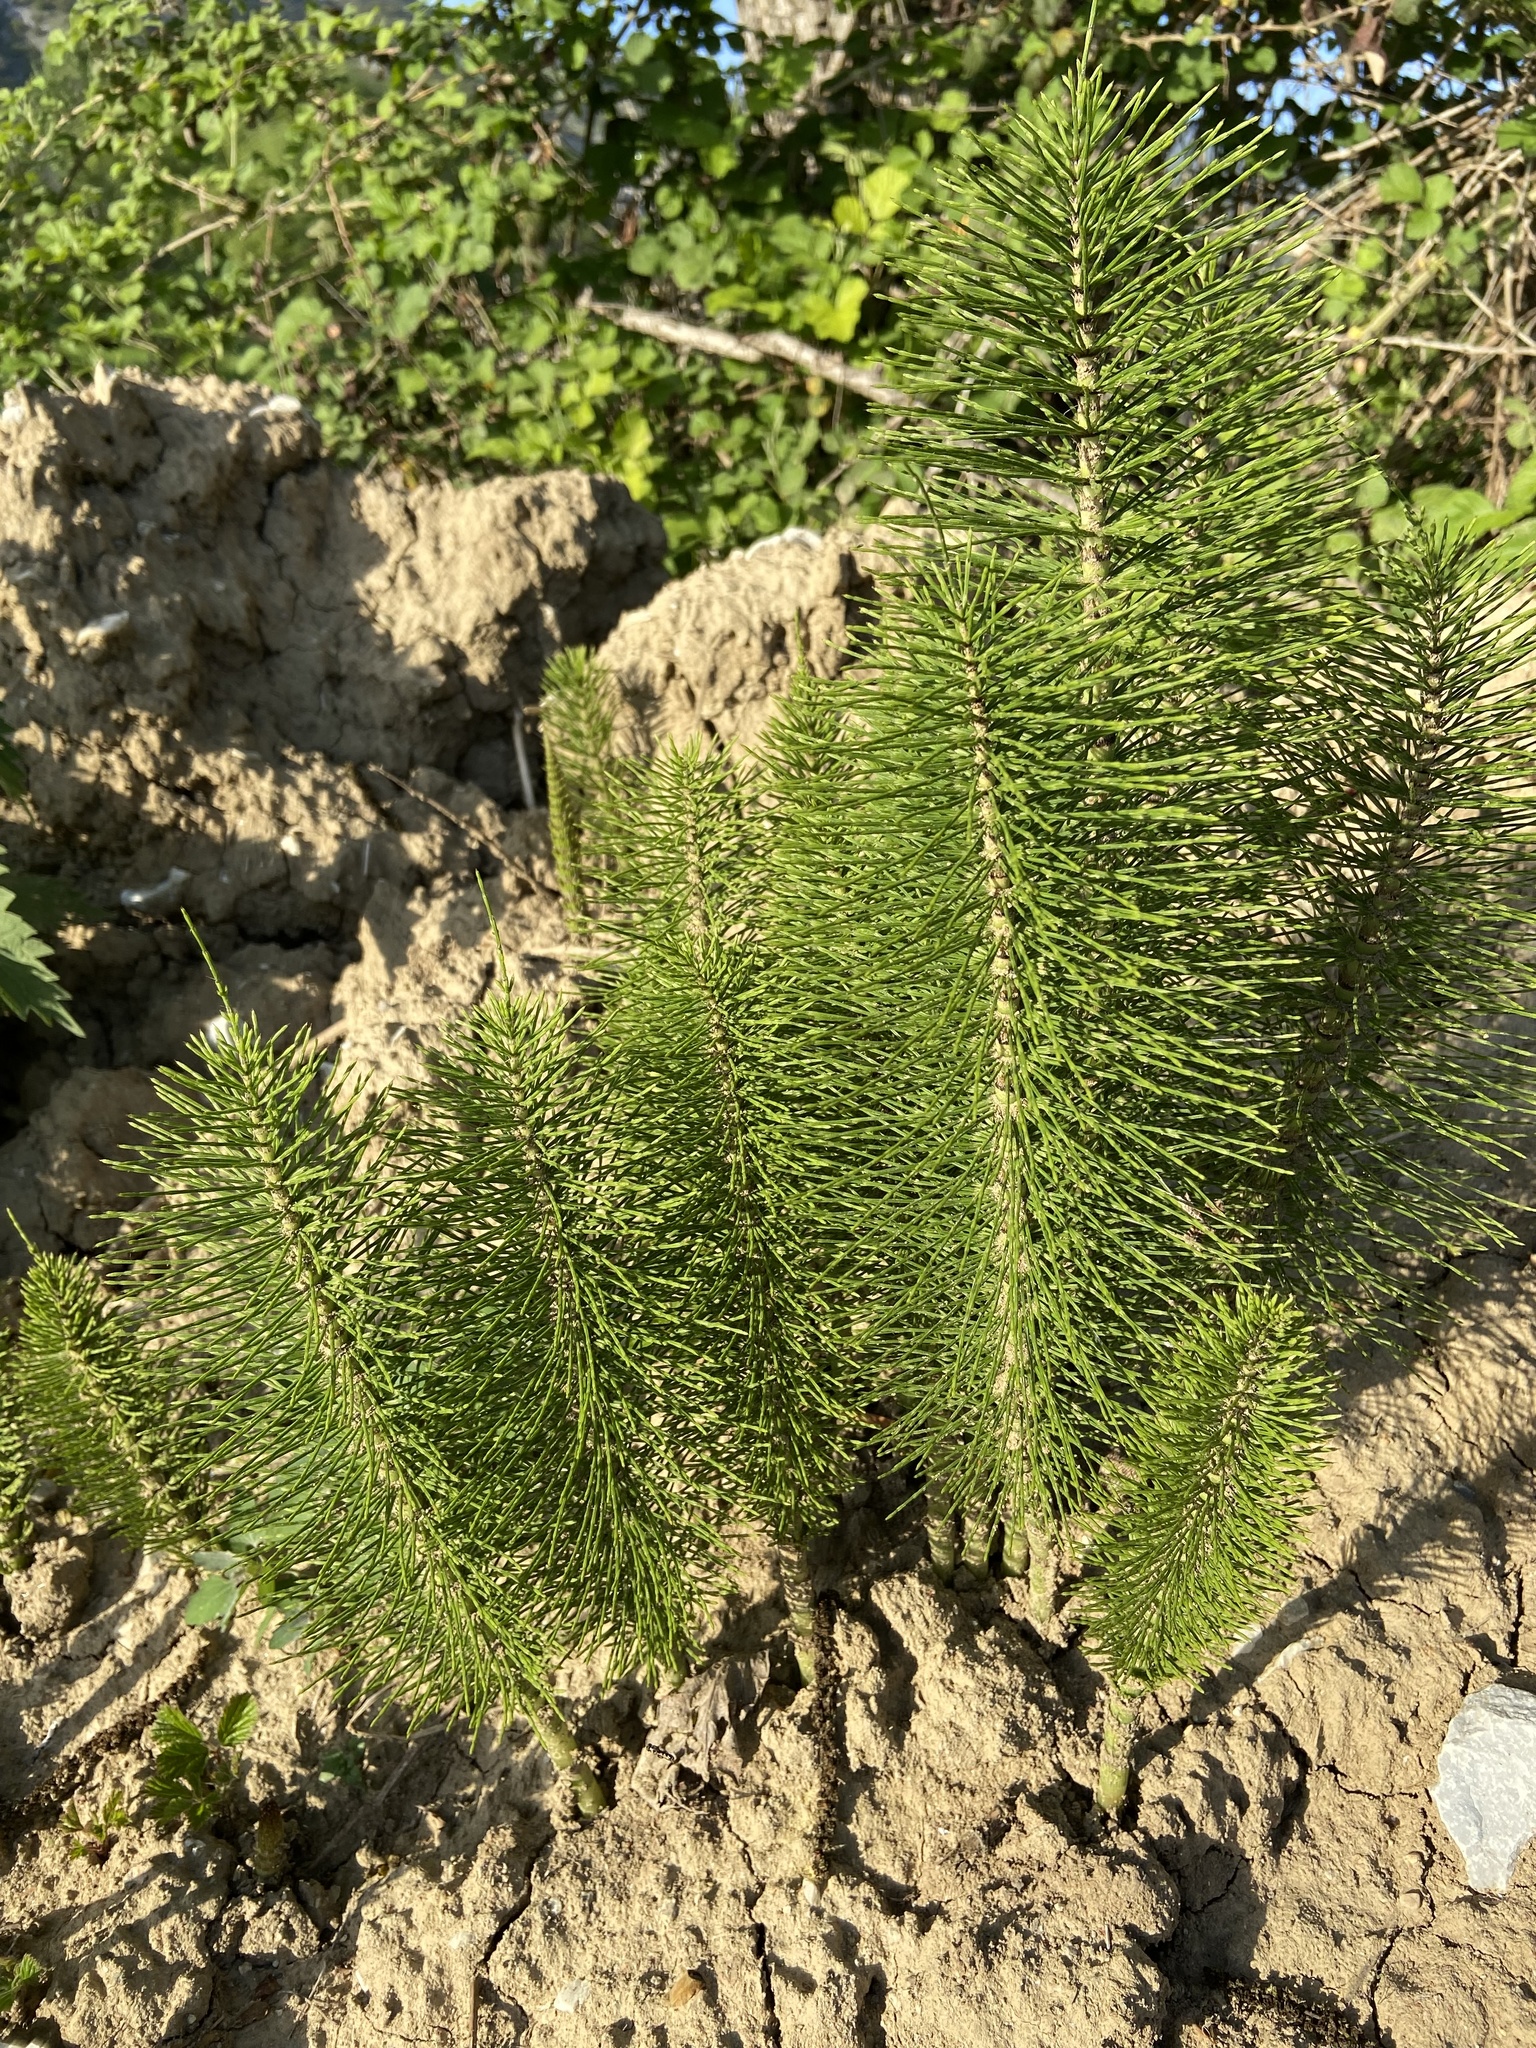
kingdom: Plantae
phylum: Tracheophyta
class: Polypodiopsida
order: Equisetales
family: Equisetaceae
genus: Equisetum
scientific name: Equisetum telmateia
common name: Great horsetail
